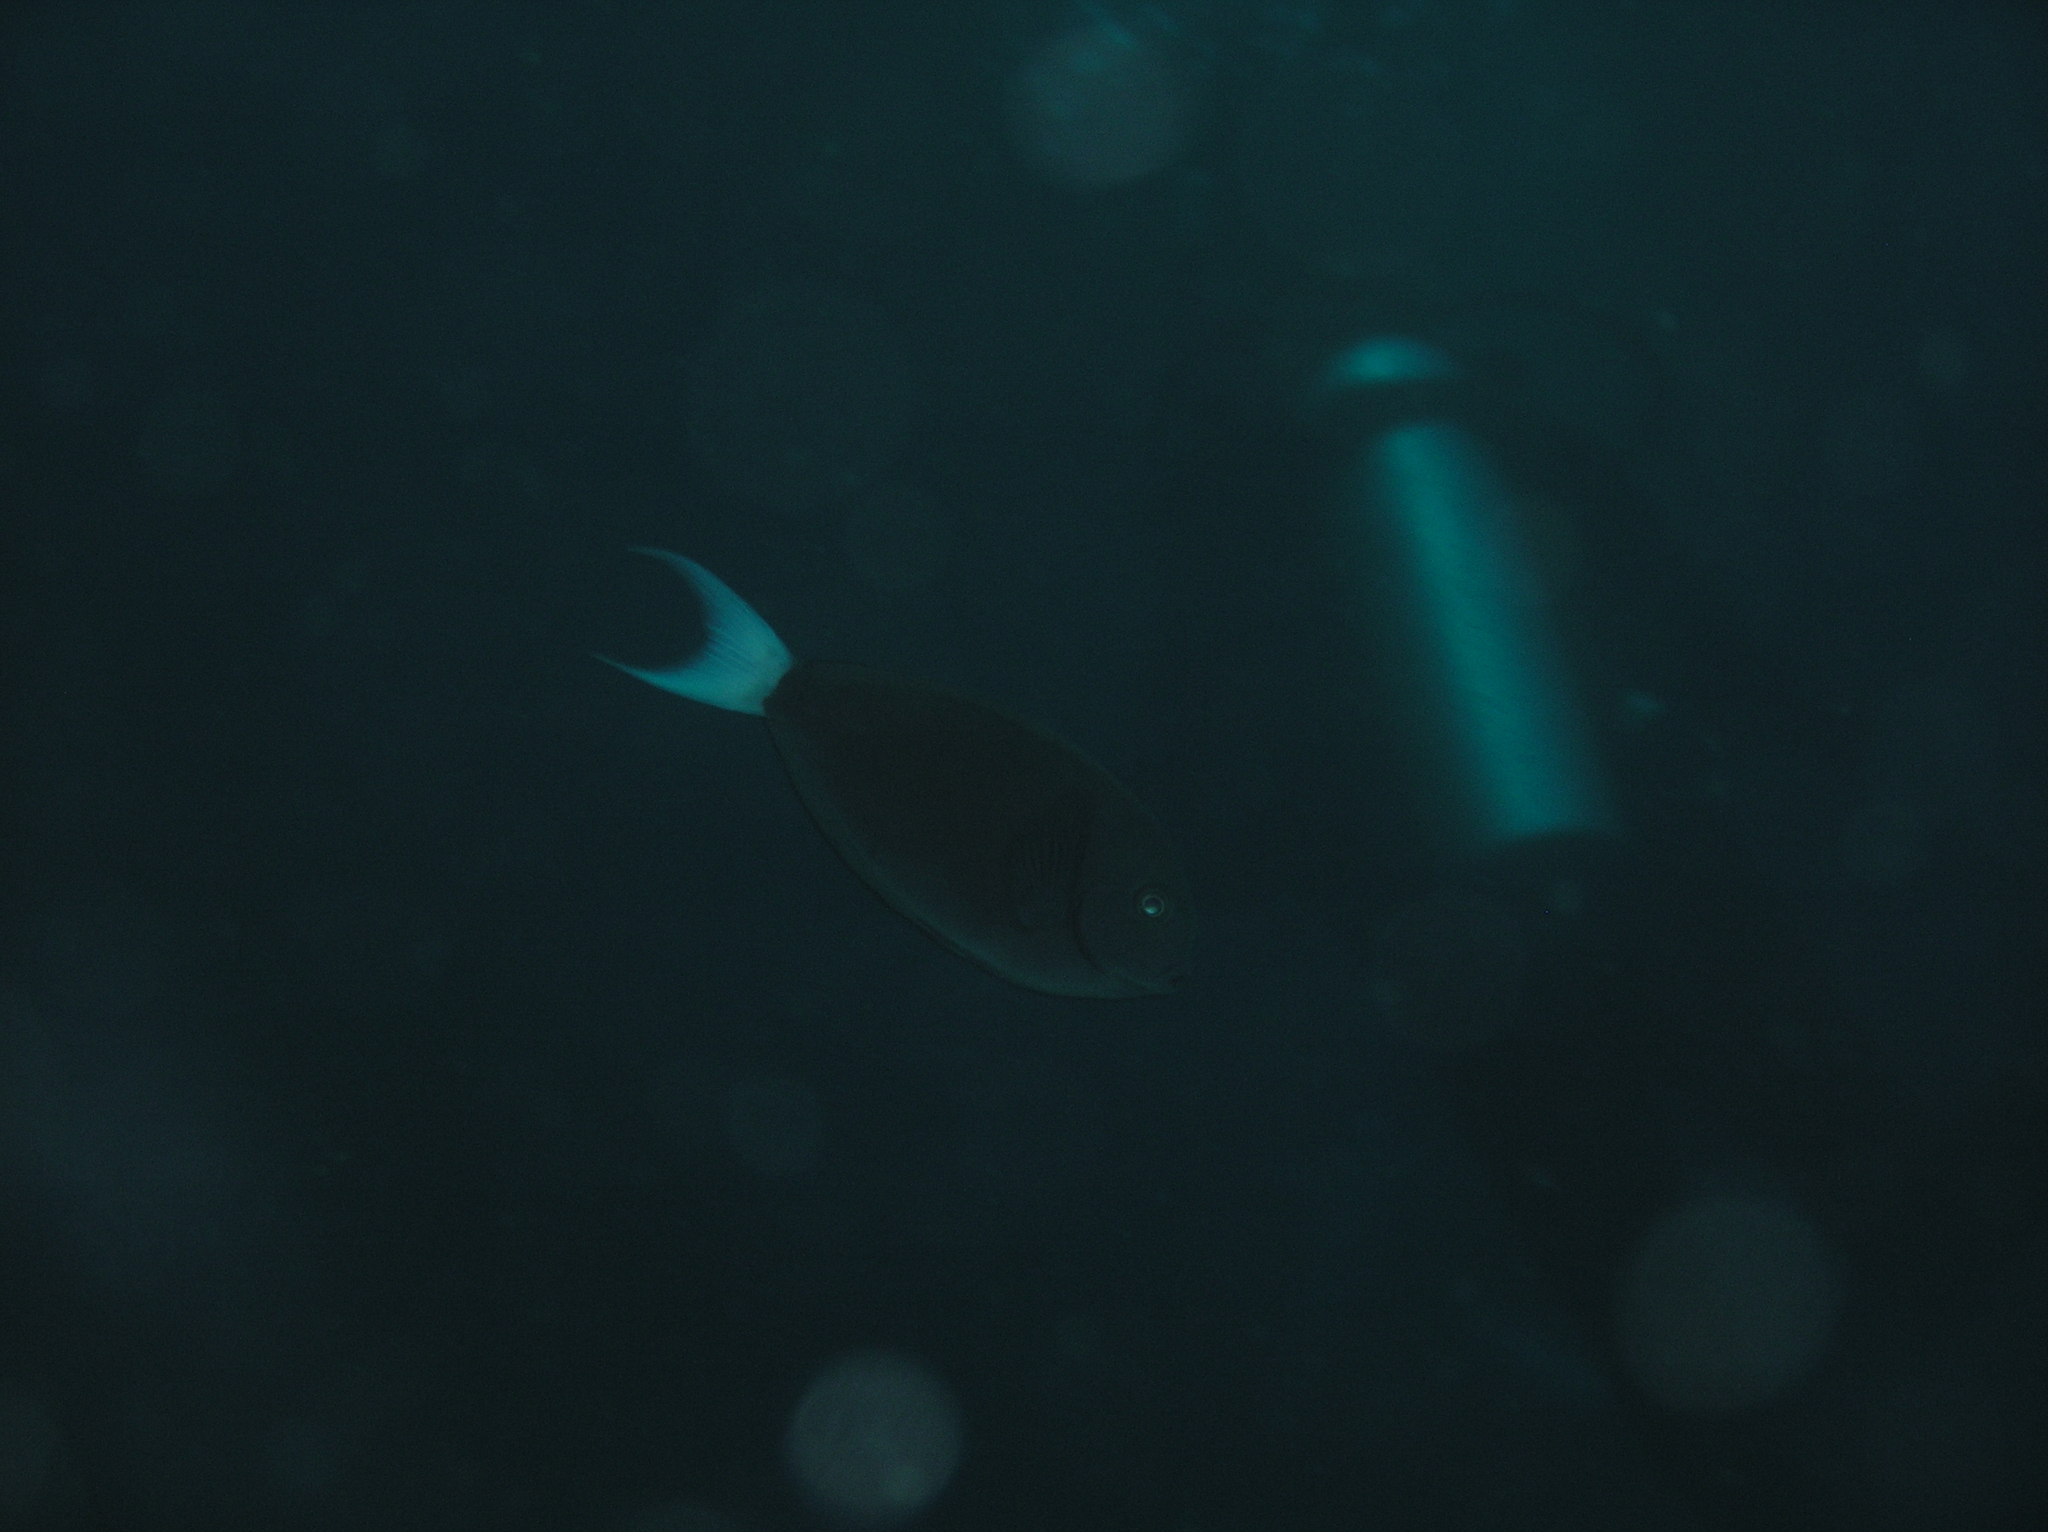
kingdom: Animalia
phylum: Chordata
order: Perciformes
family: Acanthuridae
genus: Acanthurus
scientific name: Acanthurus thompsoni
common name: Chocolate surgeonfish
